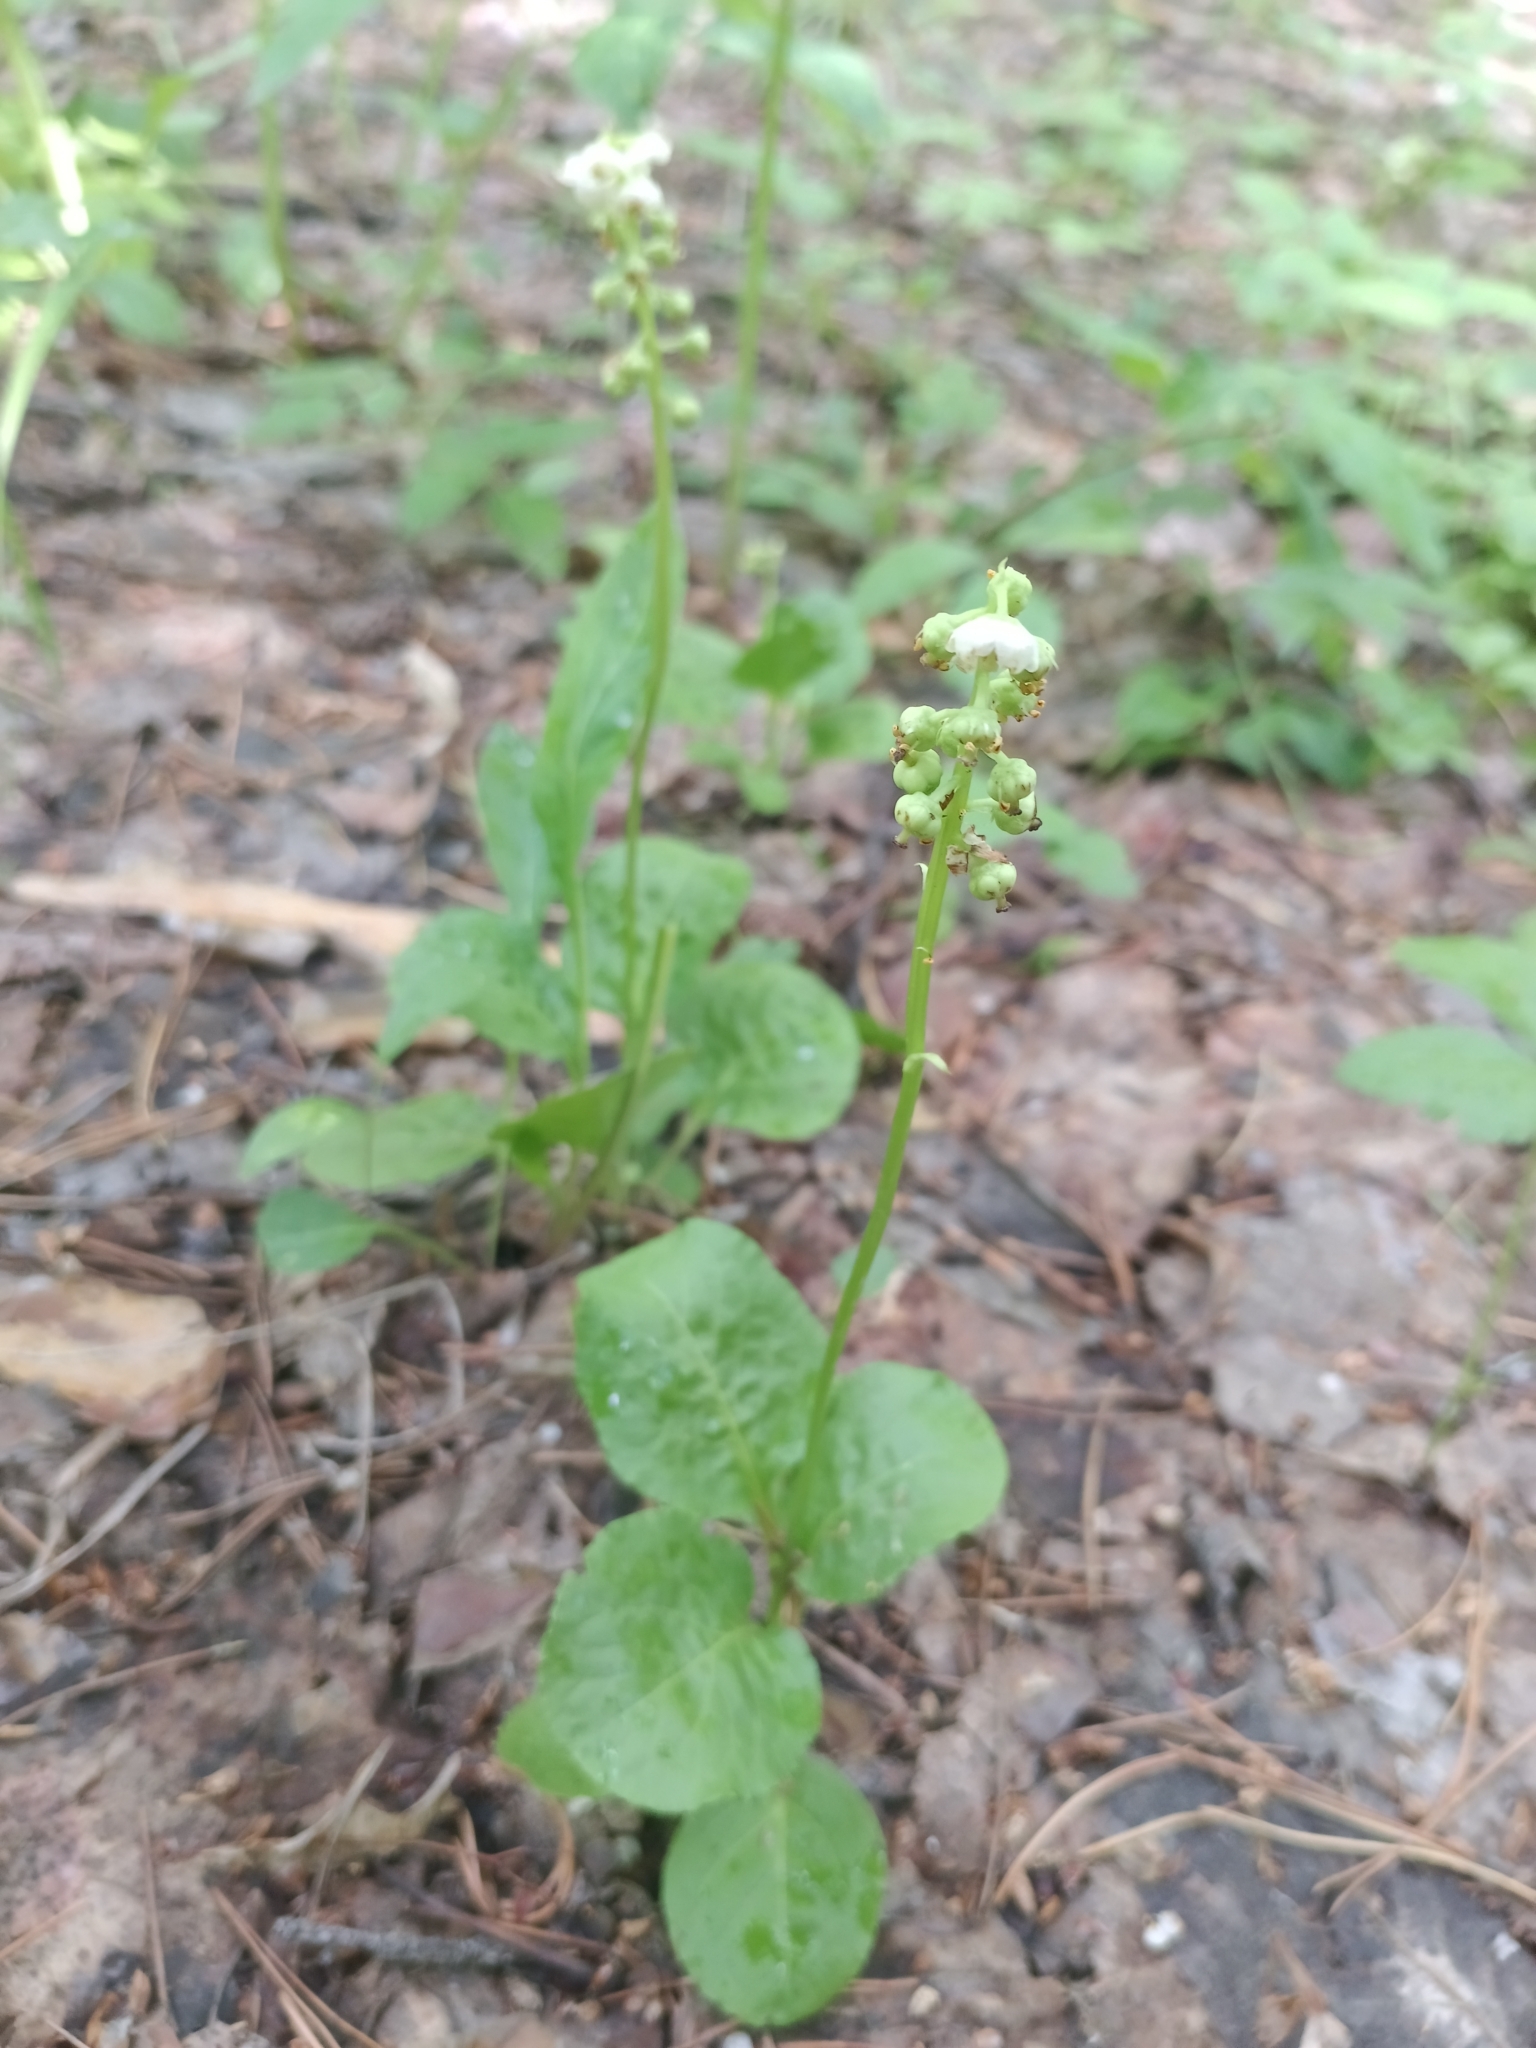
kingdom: Plantae
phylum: Tracheophyta
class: Magnoliopsida
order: Ericales
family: Ericaceae
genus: Pyrola
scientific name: Pyrola minor
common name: Common wintergreen
